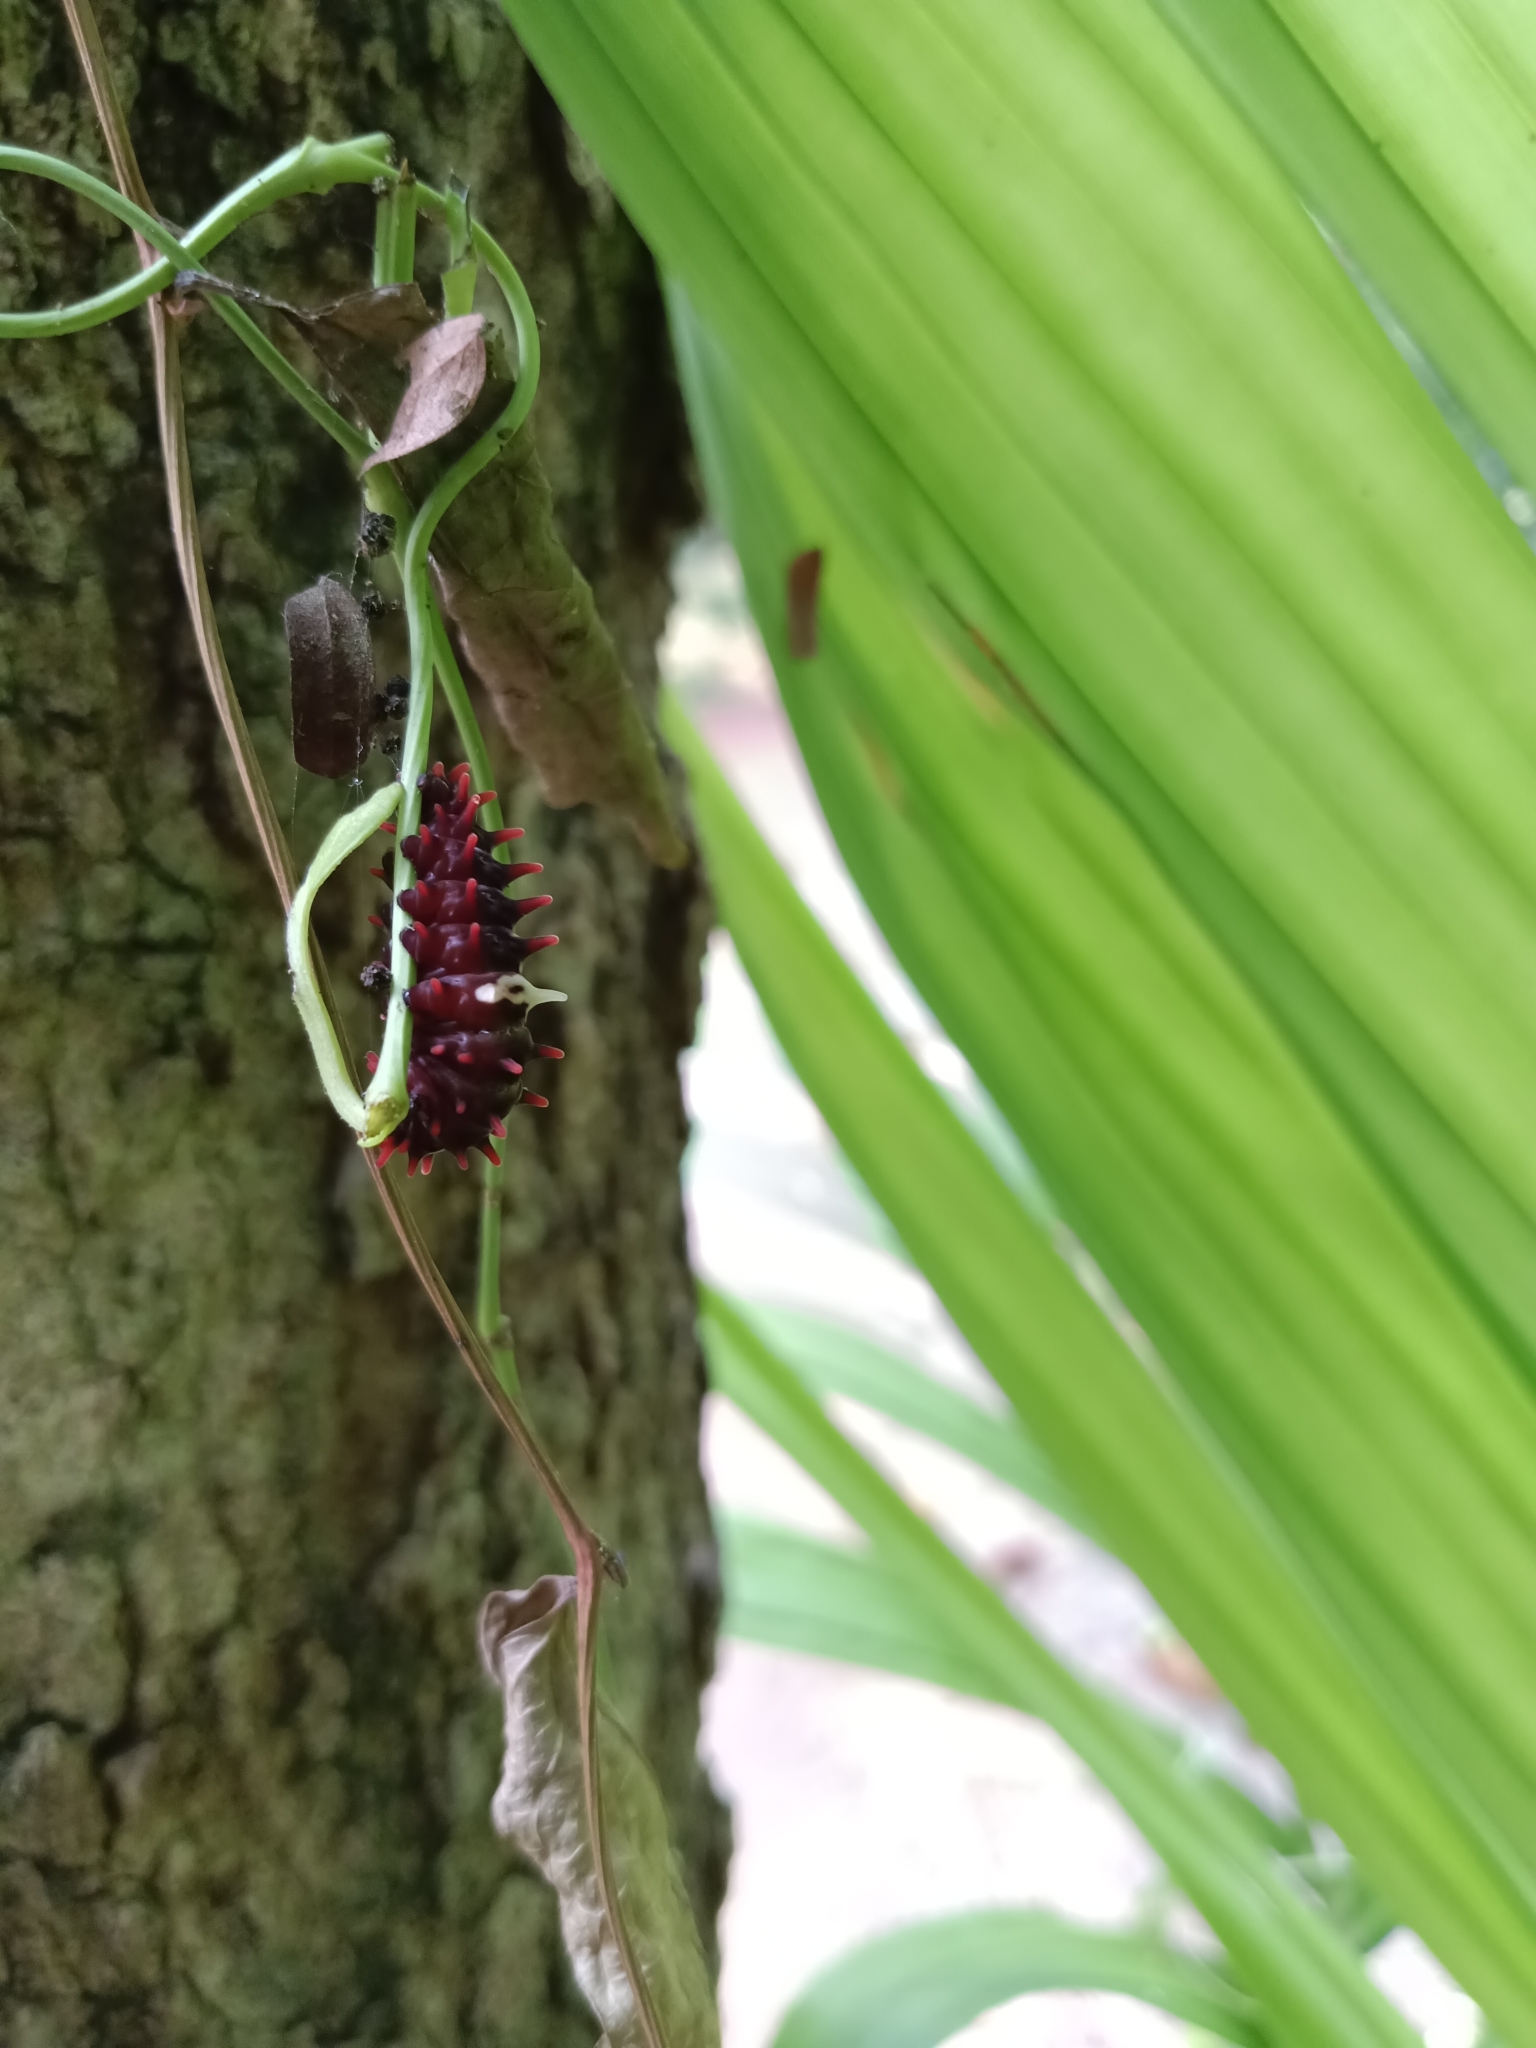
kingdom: Animalia
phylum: Arthropoda
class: Insecta
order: Lepidoptera
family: Papilionidae
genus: Pachliopta
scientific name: Pachliopta aristolochiae
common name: Common rose
